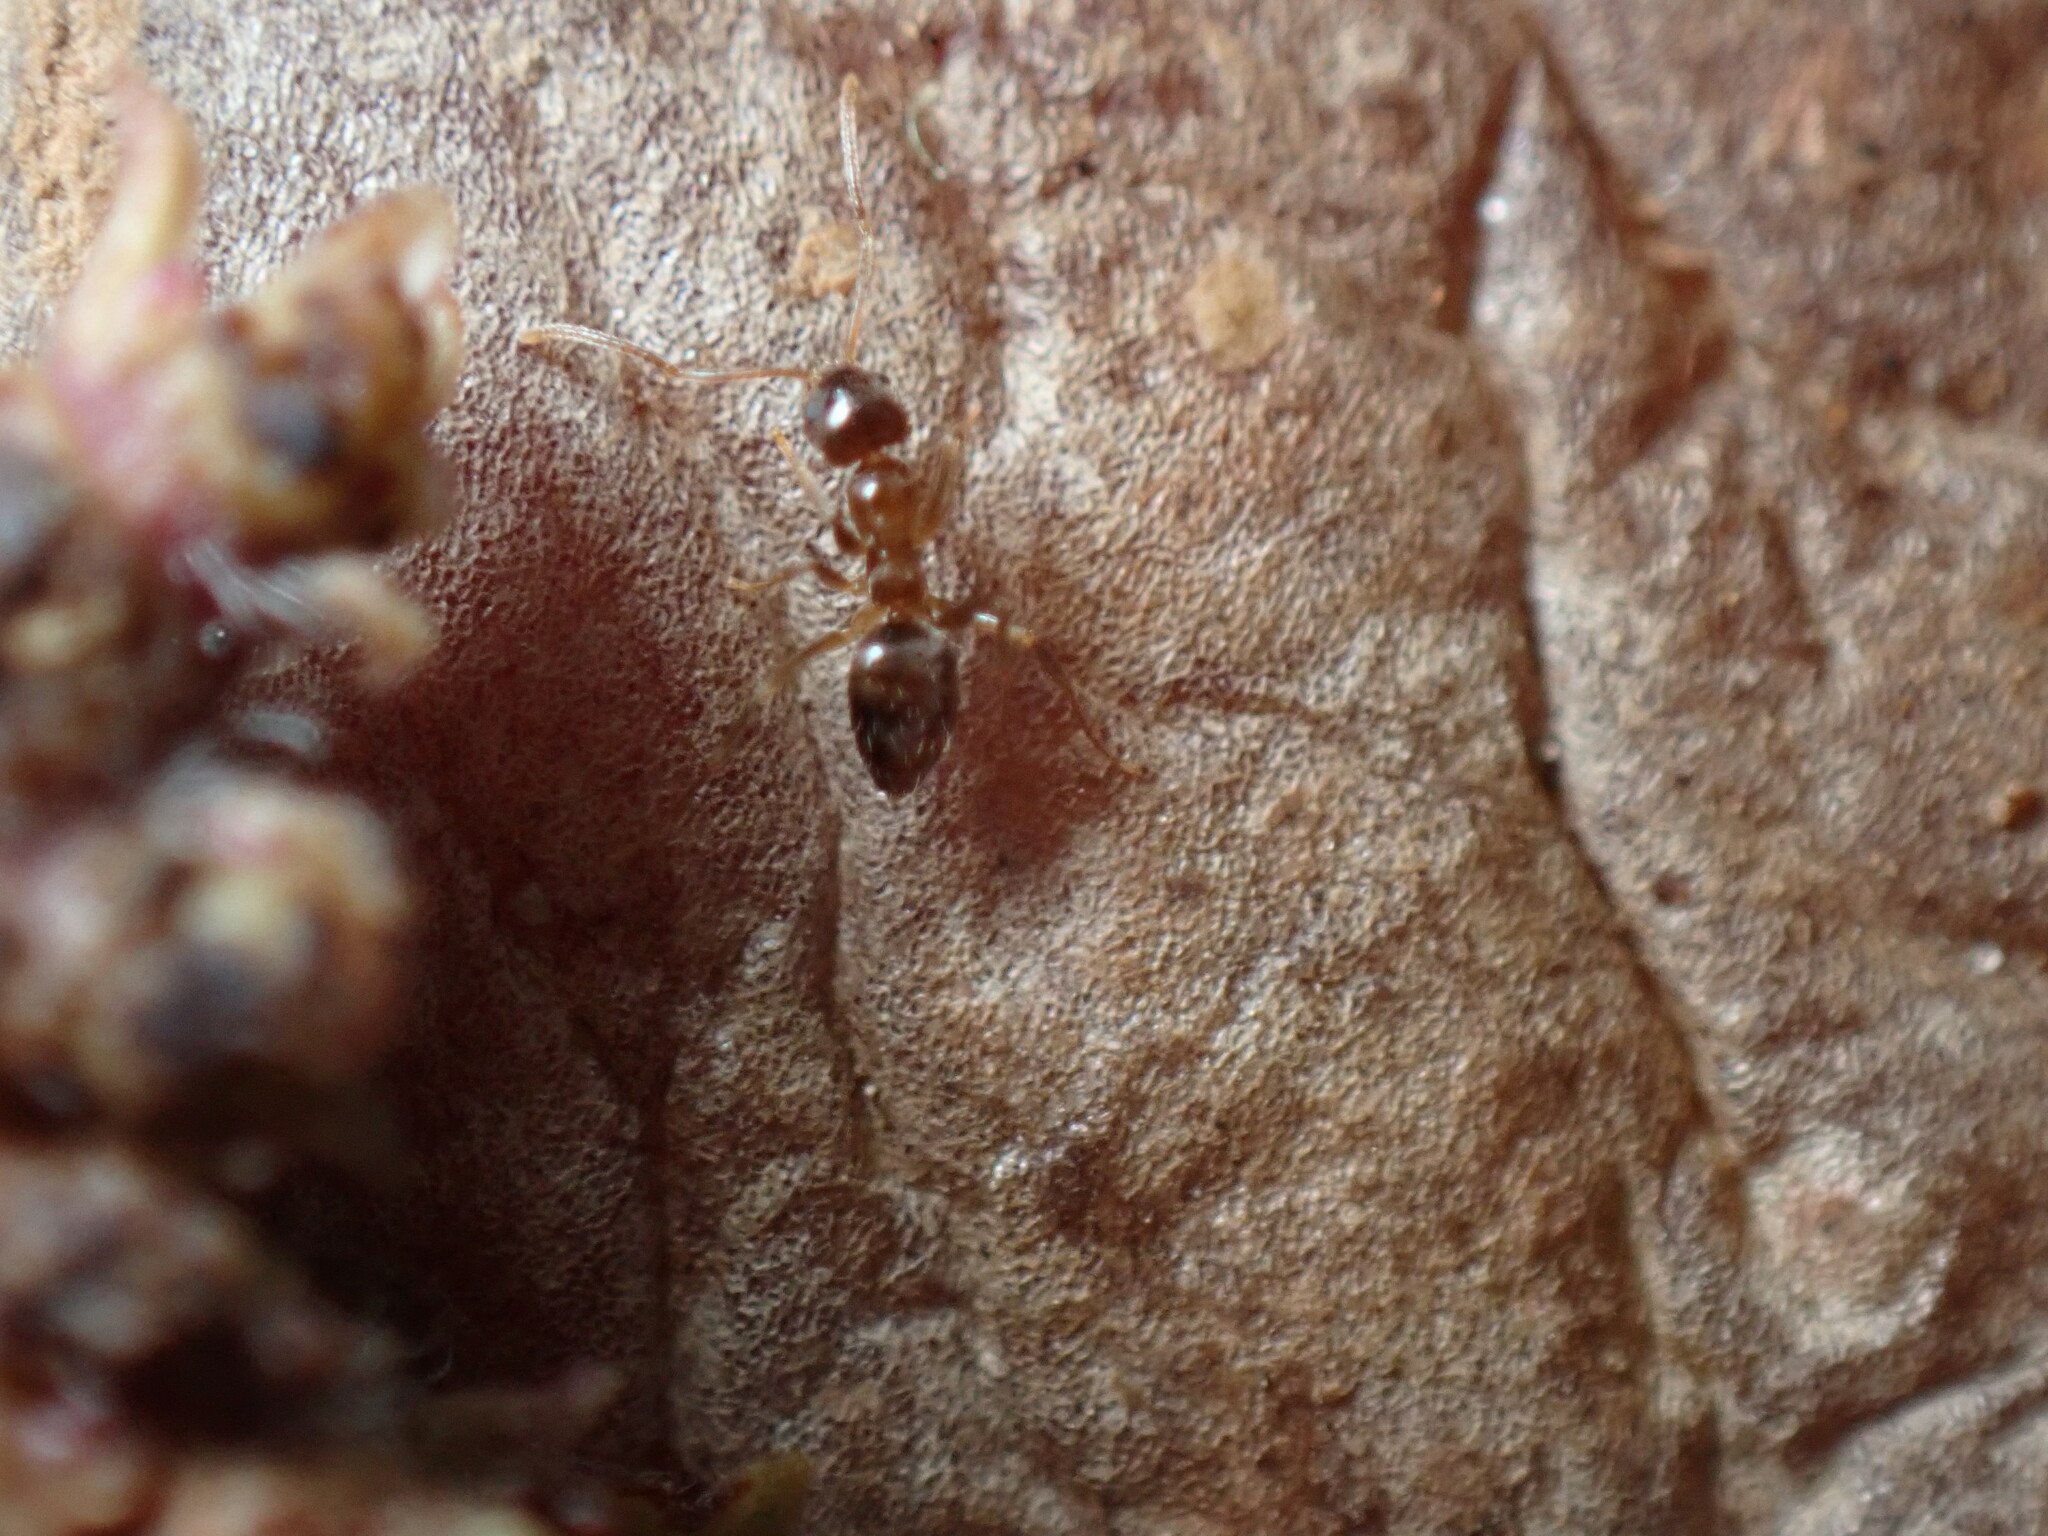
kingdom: Animalia
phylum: Arthropoda
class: Insecta
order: Hymenoptera
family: Formicidae
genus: Paratrechina
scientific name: Paratrechina jaegerskioeldi
